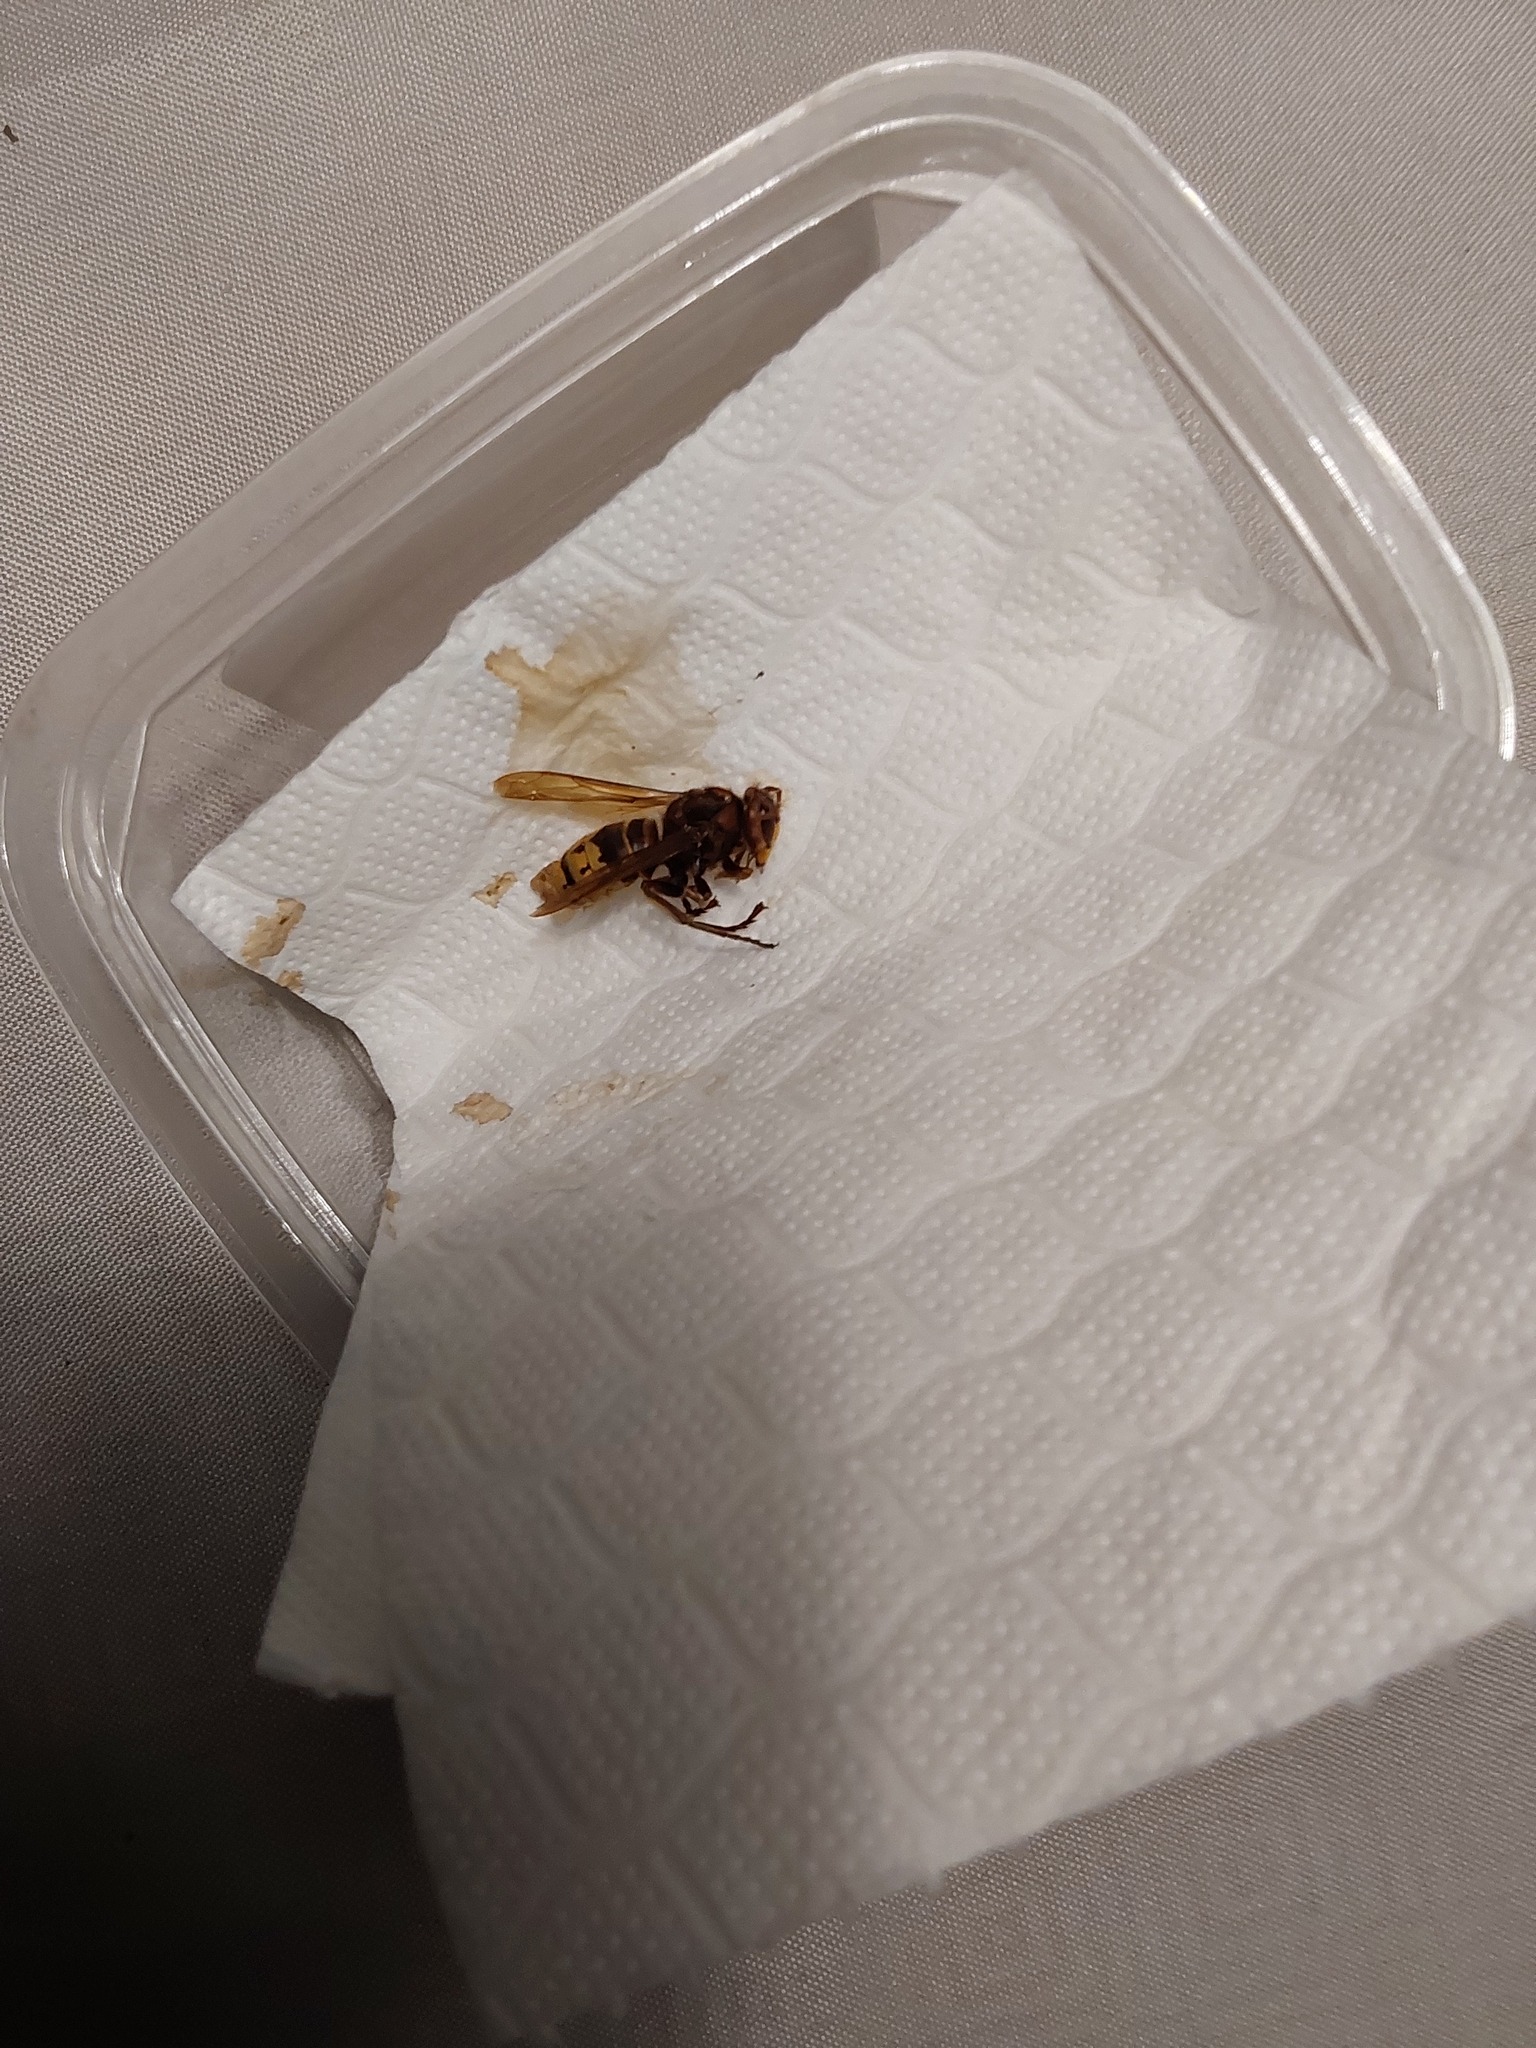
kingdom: Animalia
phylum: Arthropoda
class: Insecta
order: Hymenoptera
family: Vespidae
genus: Vespa
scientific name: Vespa crabro
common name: Hornet
